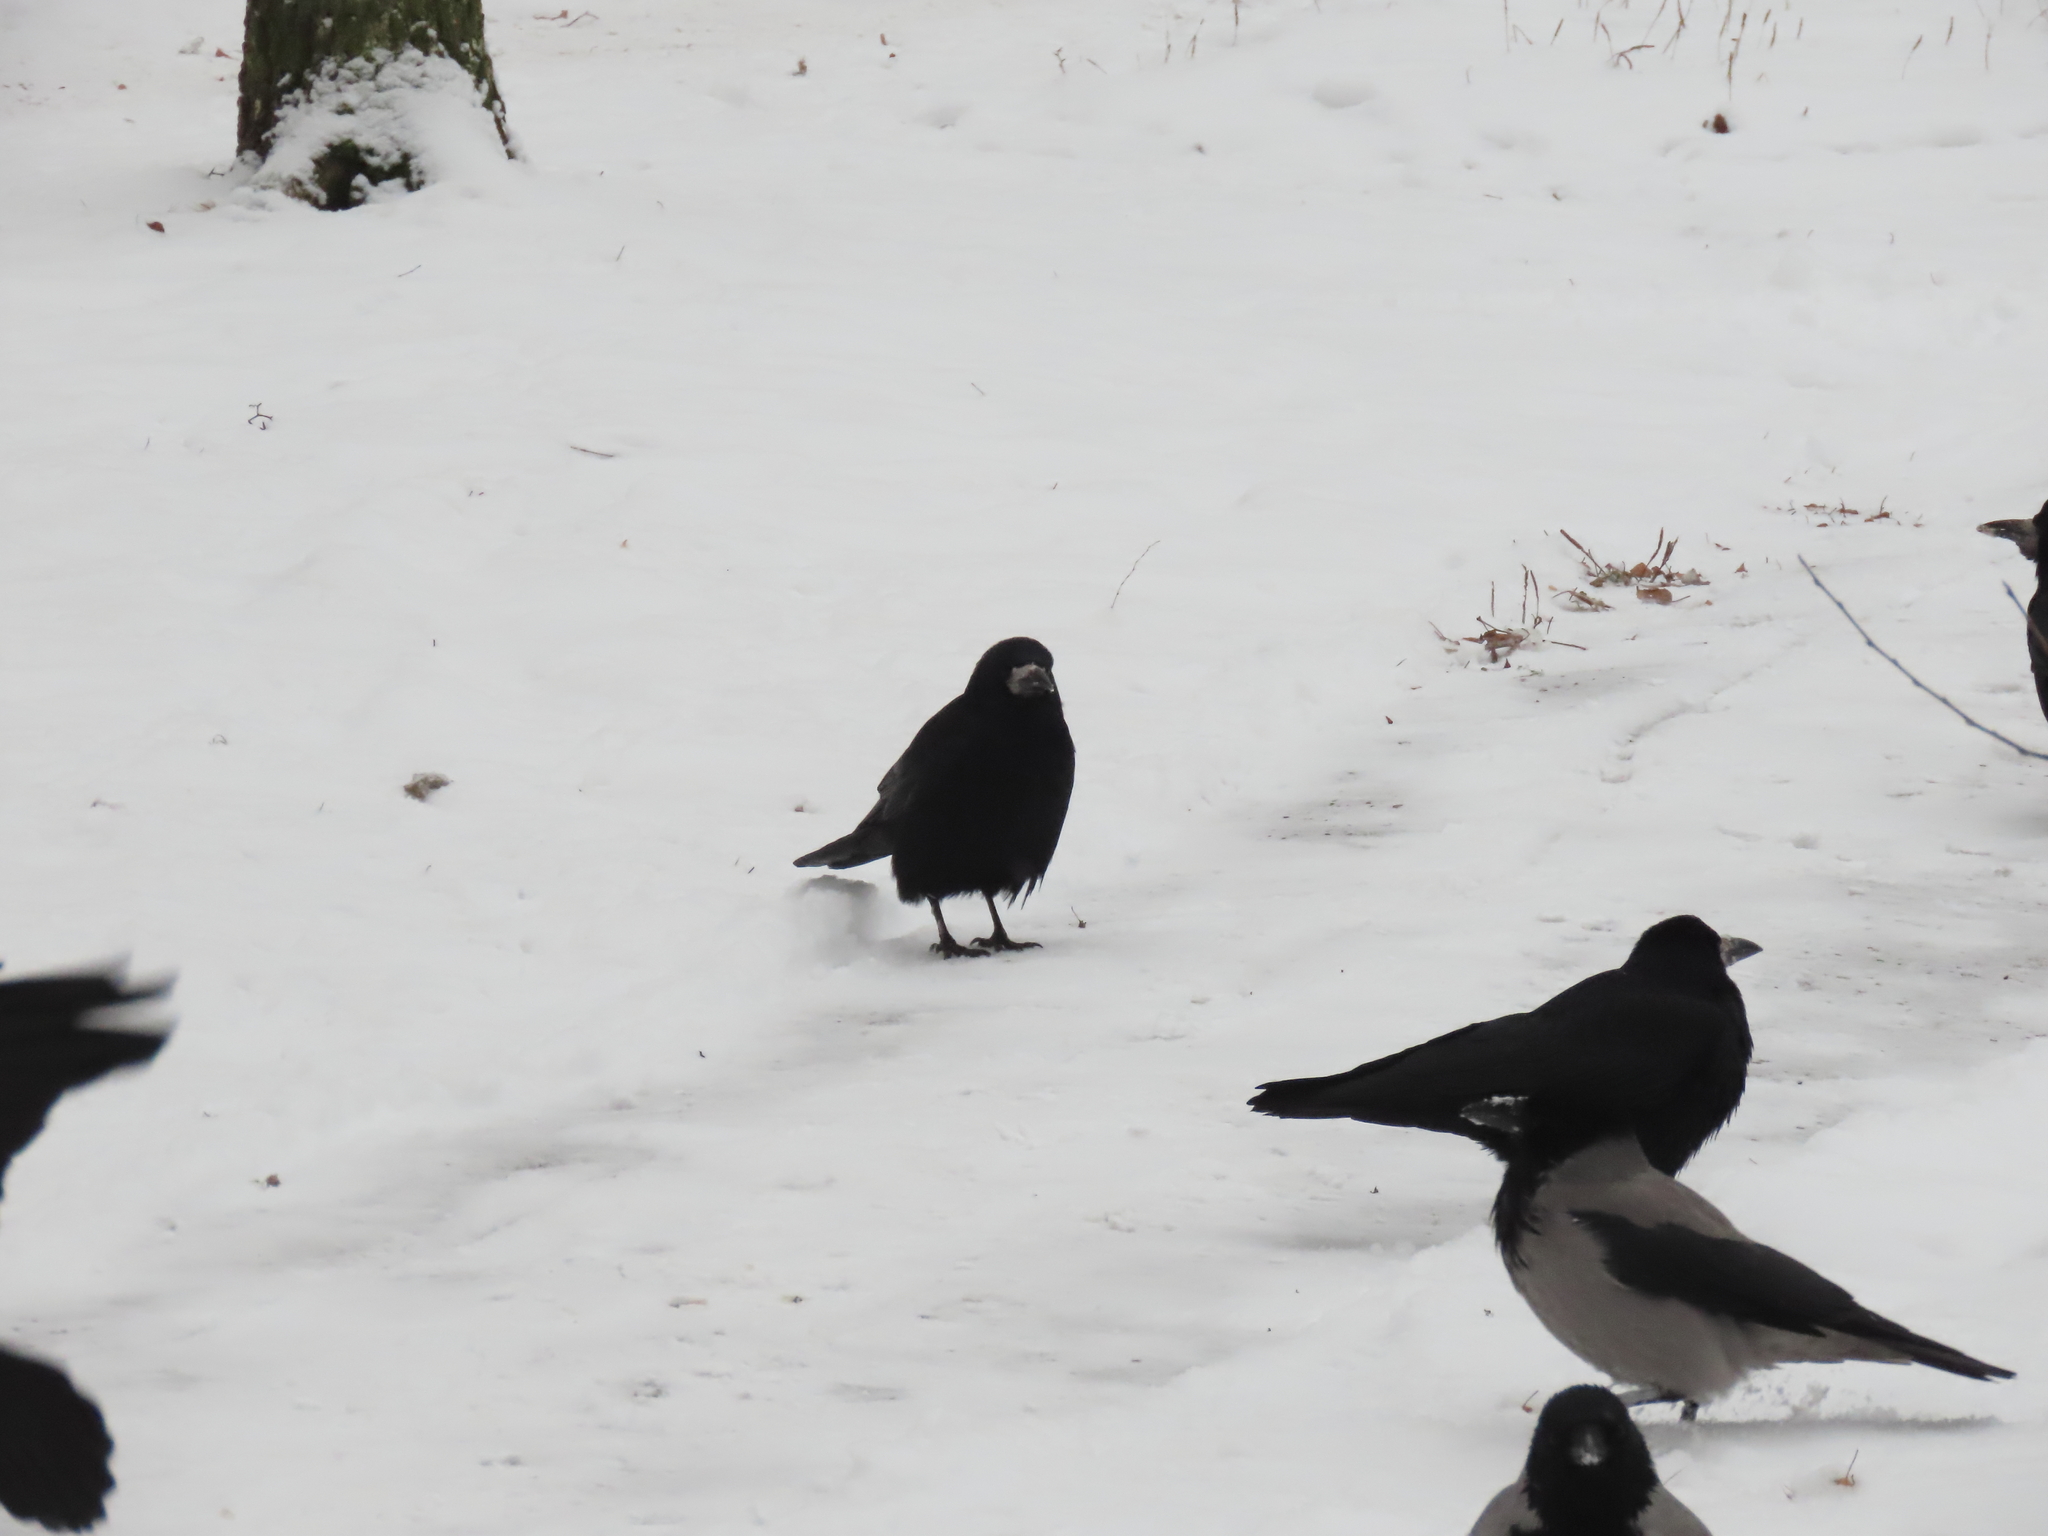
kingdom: Animalia
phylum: Chordata
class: Aves
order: Passeriformes
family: Corvidae
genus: Corvus
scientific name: Corvus frugilegus
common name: Rook
